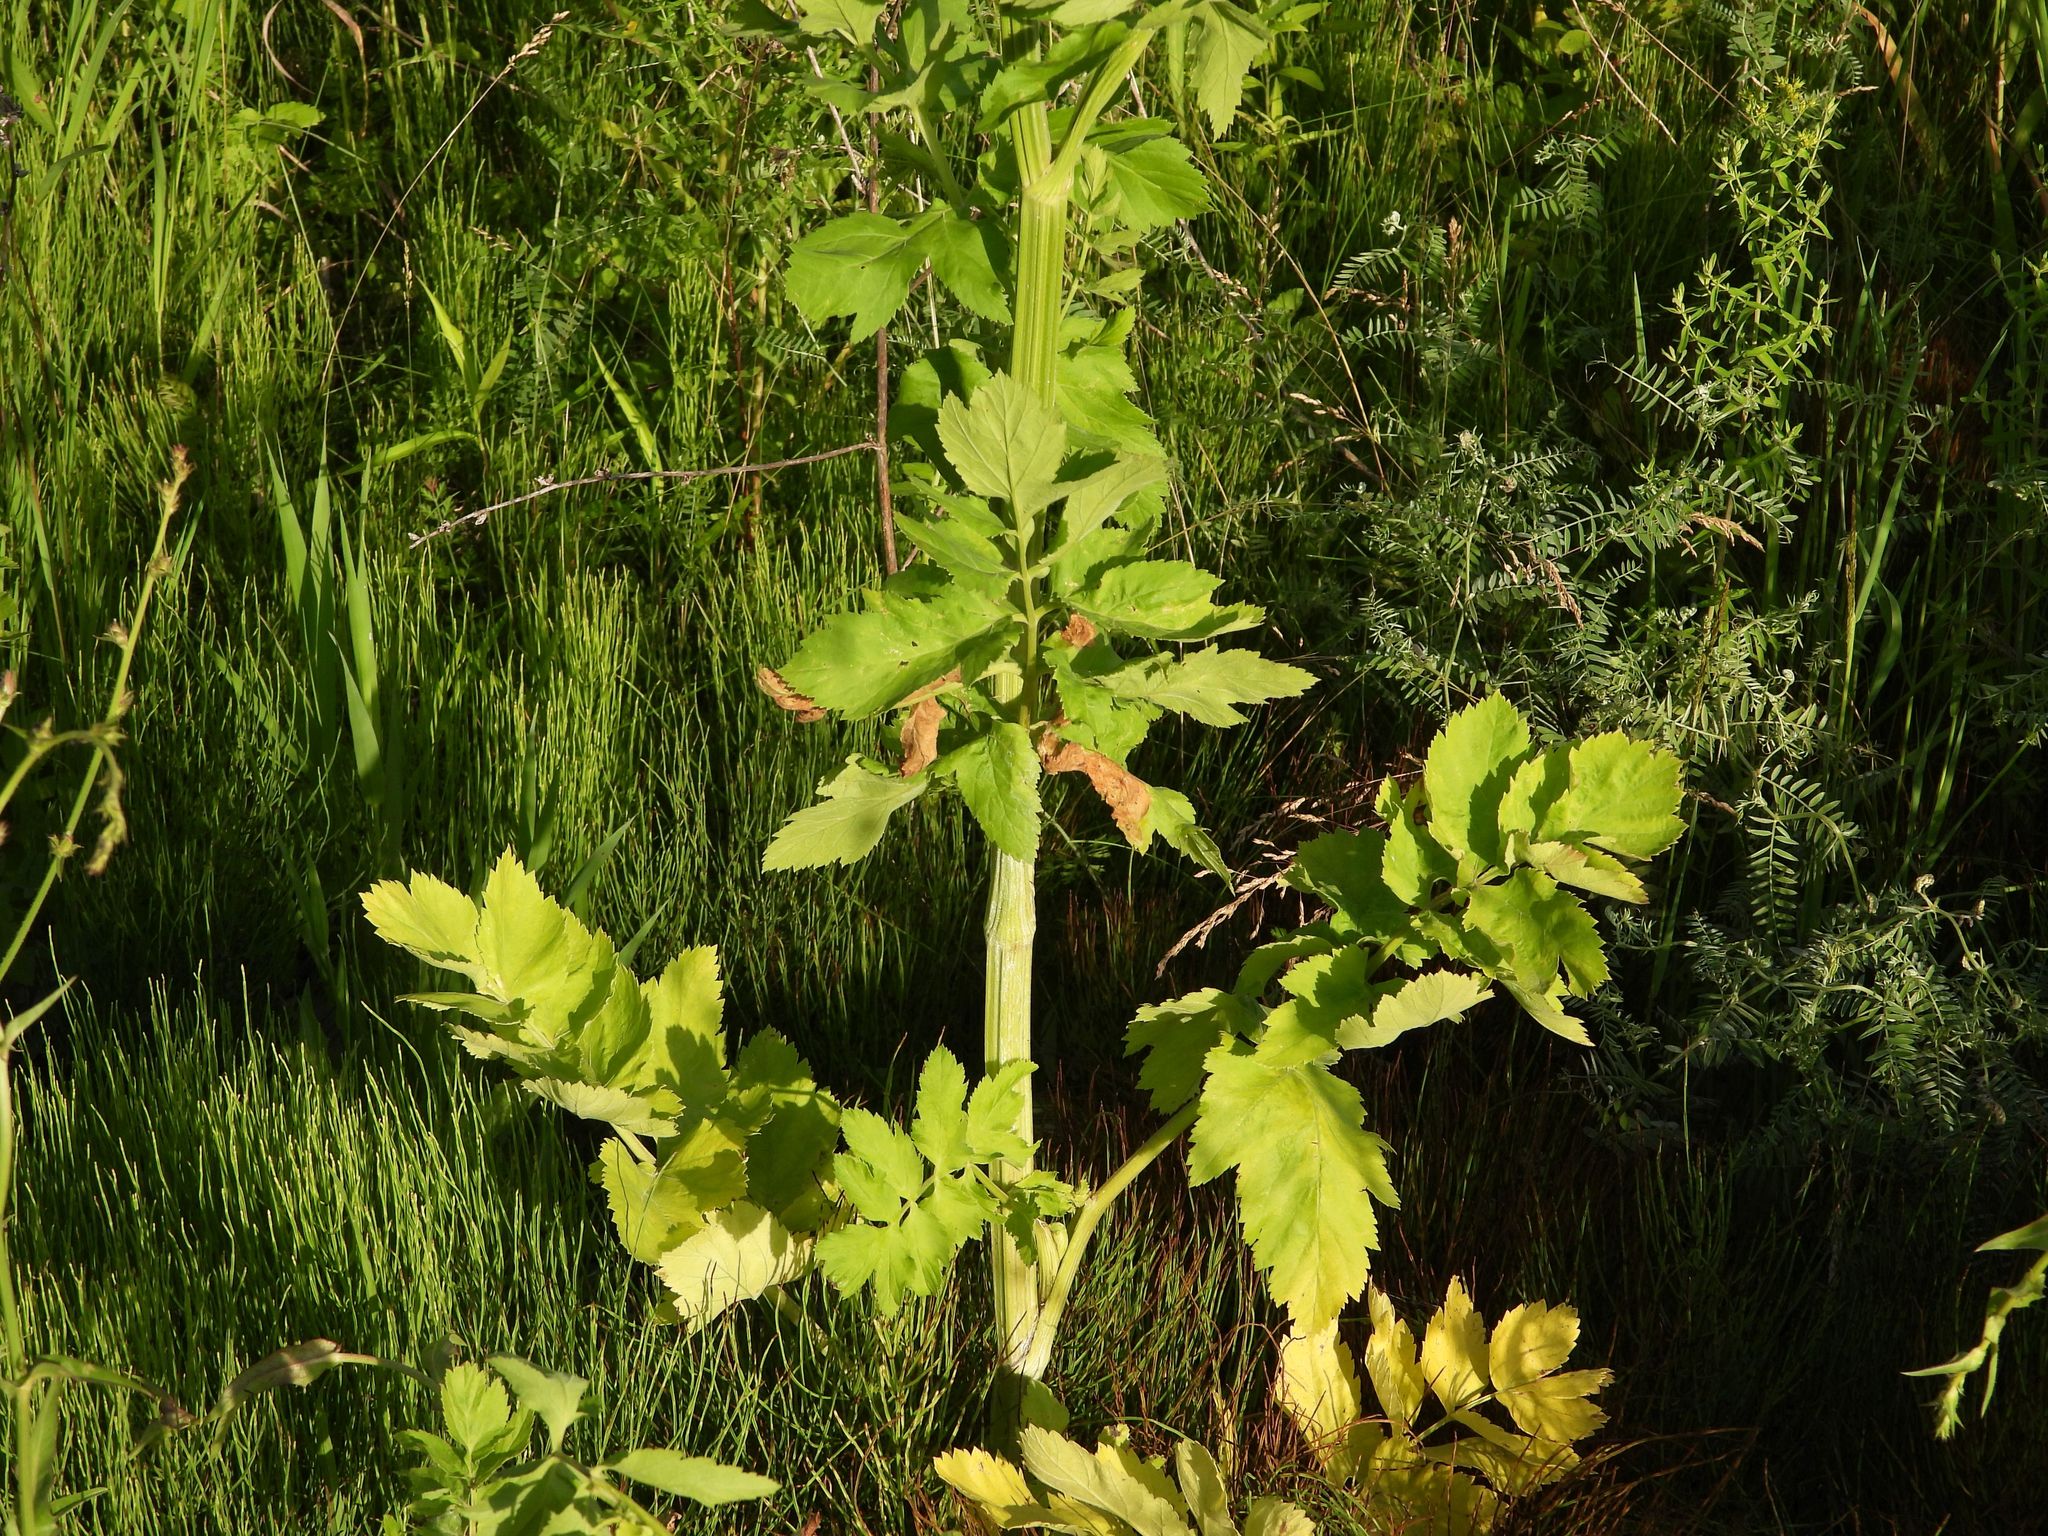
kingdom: Plantae
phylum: Tracheophyta
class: Magnoliopsida
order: Apiales
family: Apiaceae
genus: Pastinaca
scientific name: Pastinaca sativa
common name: Wild parsnip
